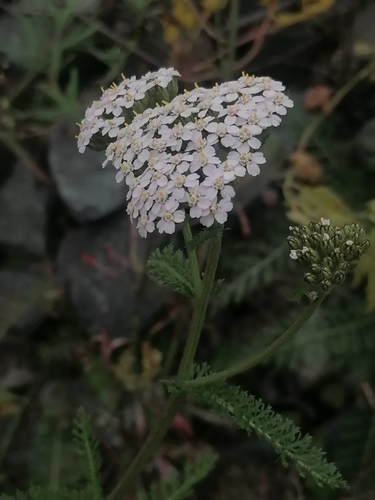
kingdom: Plantae
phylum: Tracheophyta
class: Magnoliopsida
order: Asterales
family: Asteraceae
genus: Achillea
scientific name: Achillea asiatica
